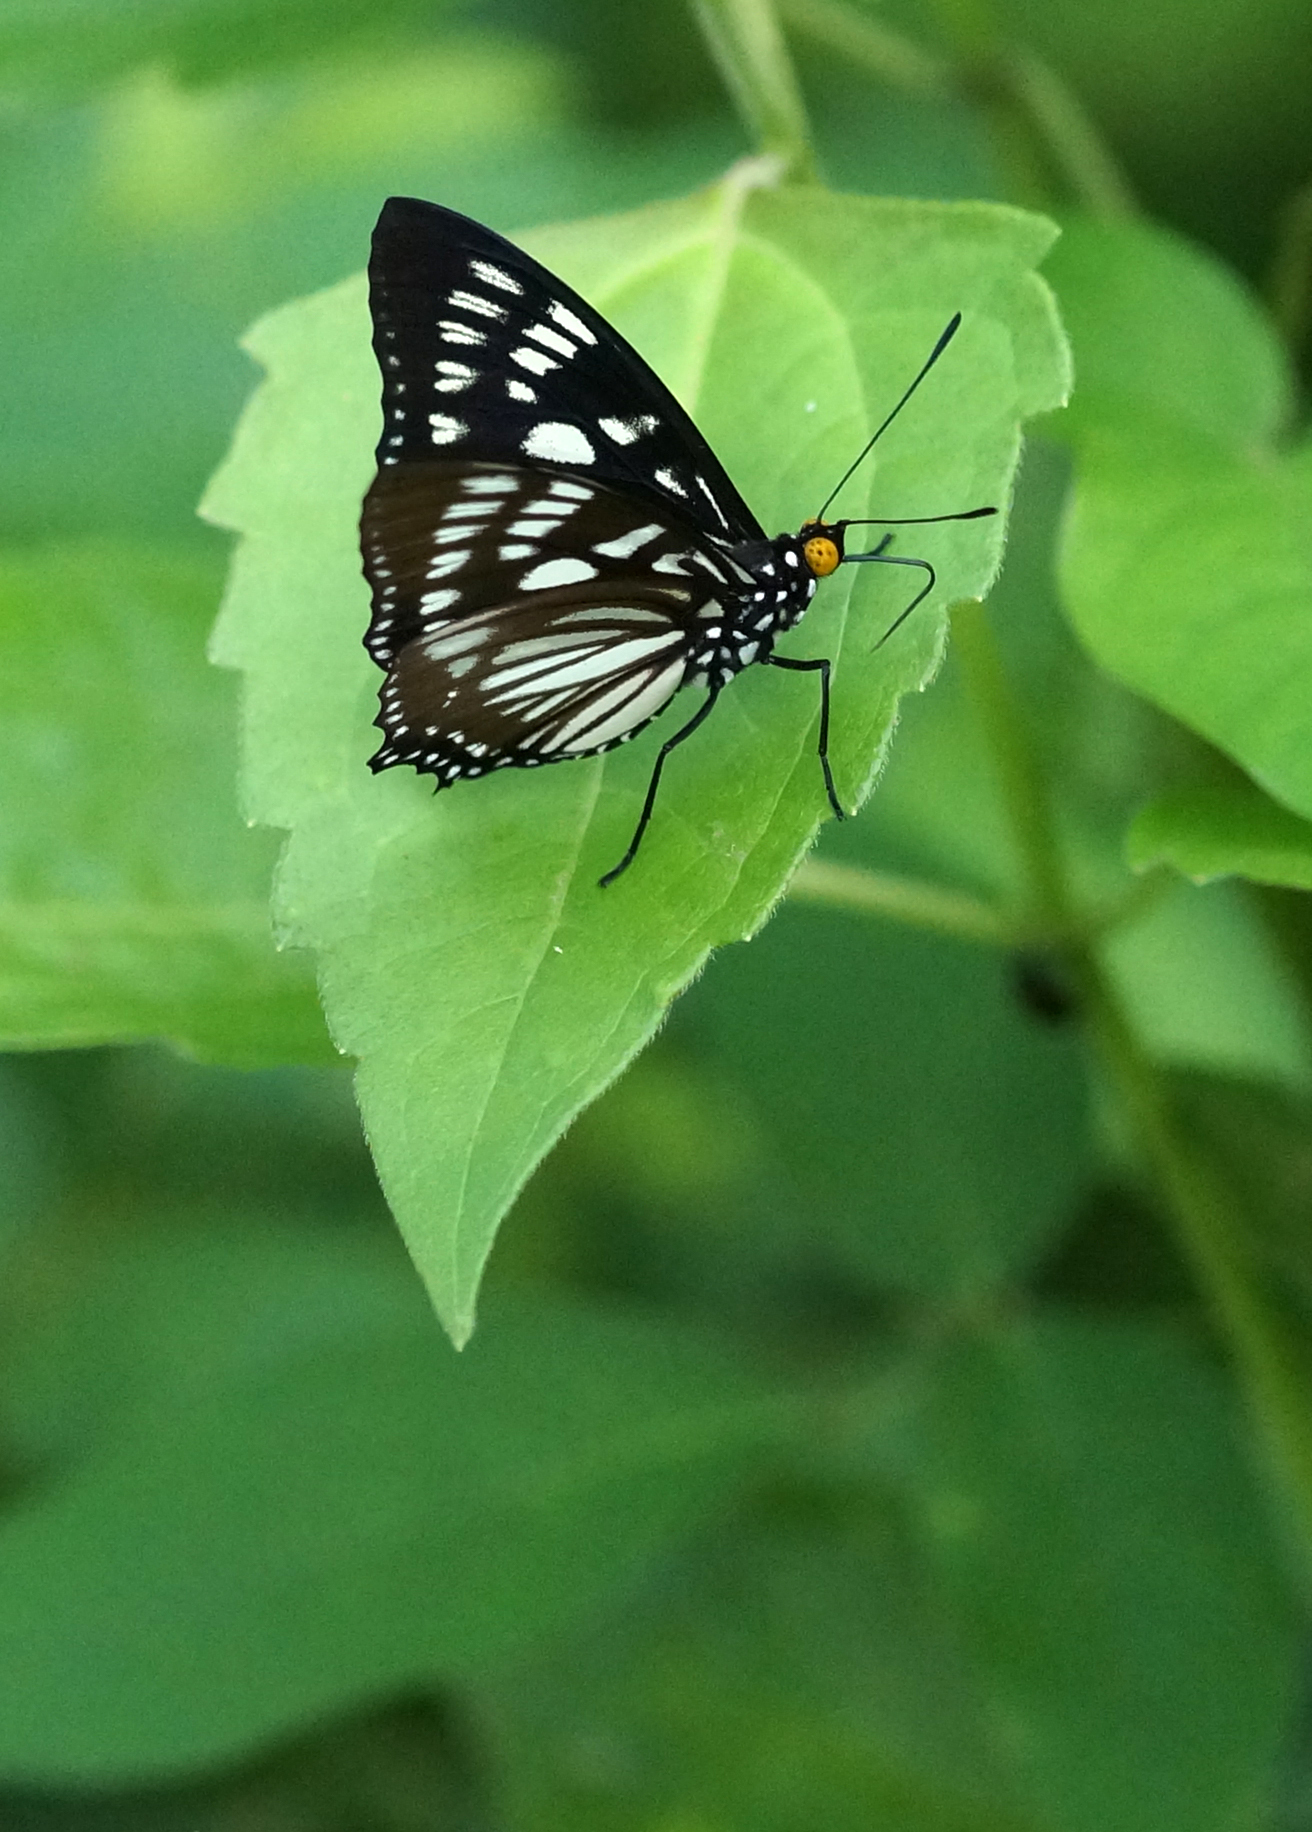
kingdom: Animalia
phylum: Arthropoda
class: Insecta
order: Lepidoptera
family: Nymphalidae
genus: Euripus
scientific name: Euripus nyctelius
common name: Courtesan
